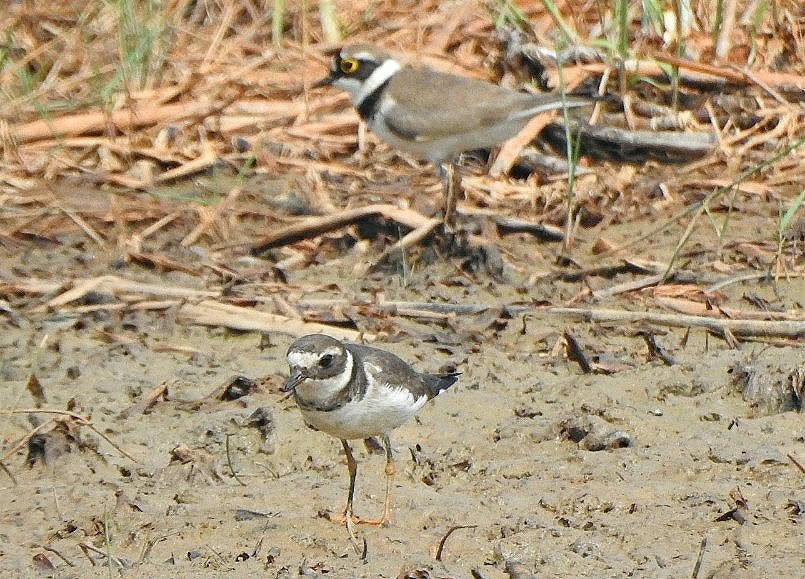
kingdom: Animalia
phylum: Chordata
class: Aves
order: Charadriiformes
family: Charadriidae
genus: Charadrius
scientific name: Charadrius hiaticula
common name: Common ringed plover
